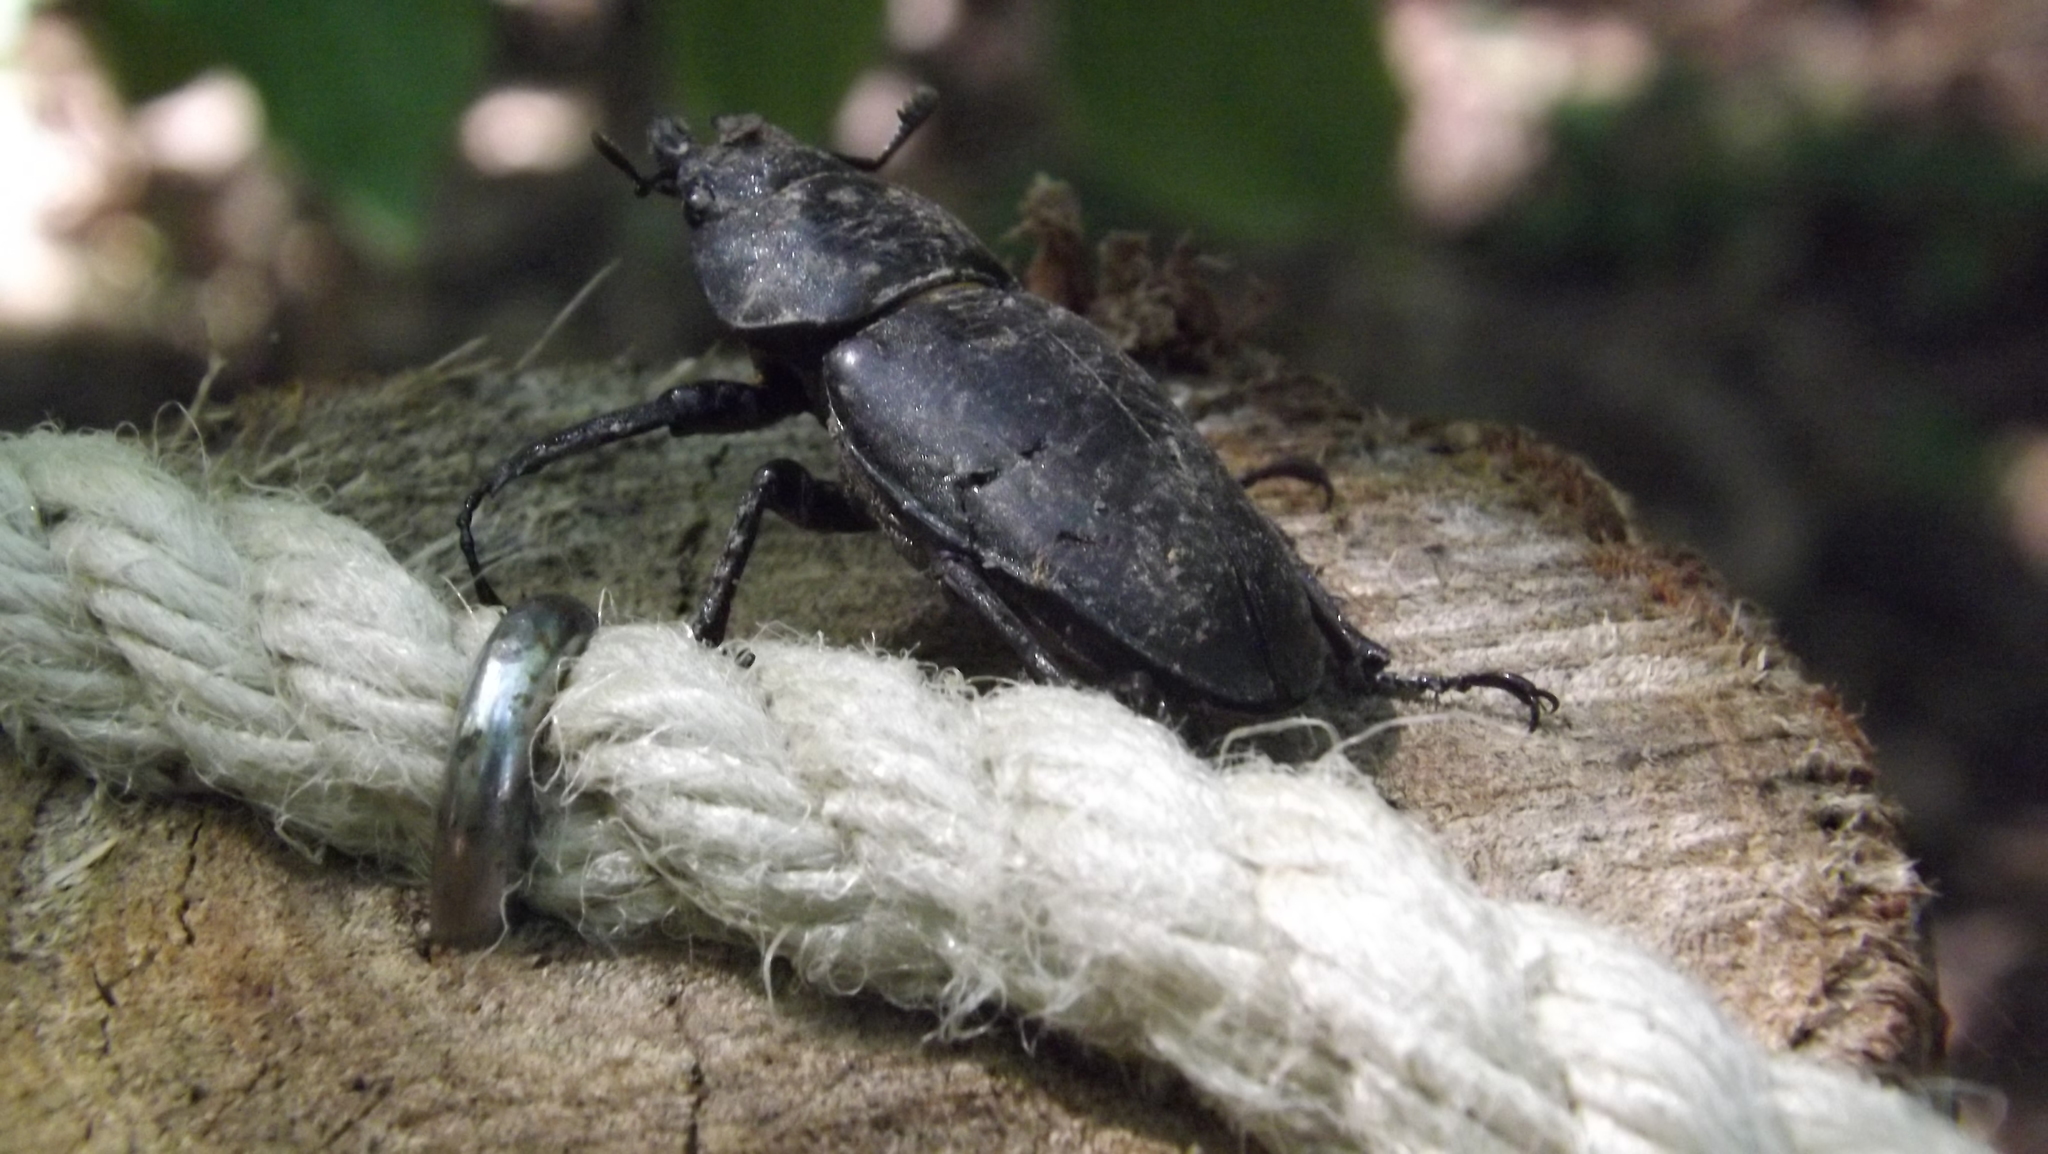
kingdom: Animalia
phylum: Arthropoda
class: Insecta
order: Coleoptera
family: Lucanidae
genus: Dorcus
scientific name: Dorcus parallelipipedus
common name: Lesser stag beetle
